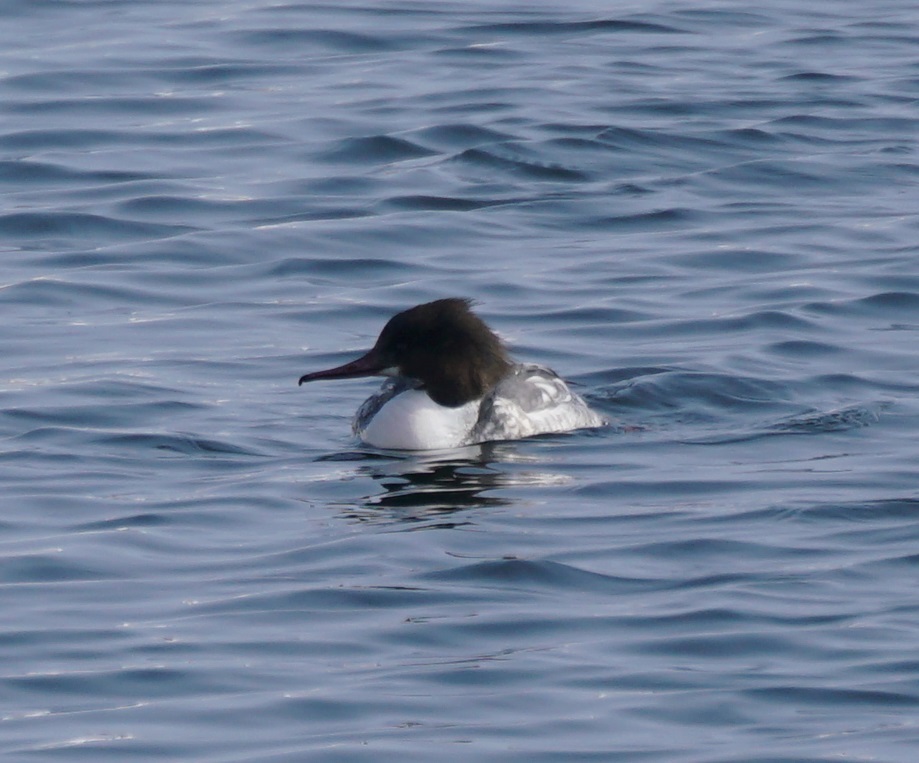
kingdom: Animalia
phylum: Chordata
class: Aves
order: Anseriformes
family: Anatidae
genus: Mergus
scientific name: Mergus merganser
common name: Common merganser
